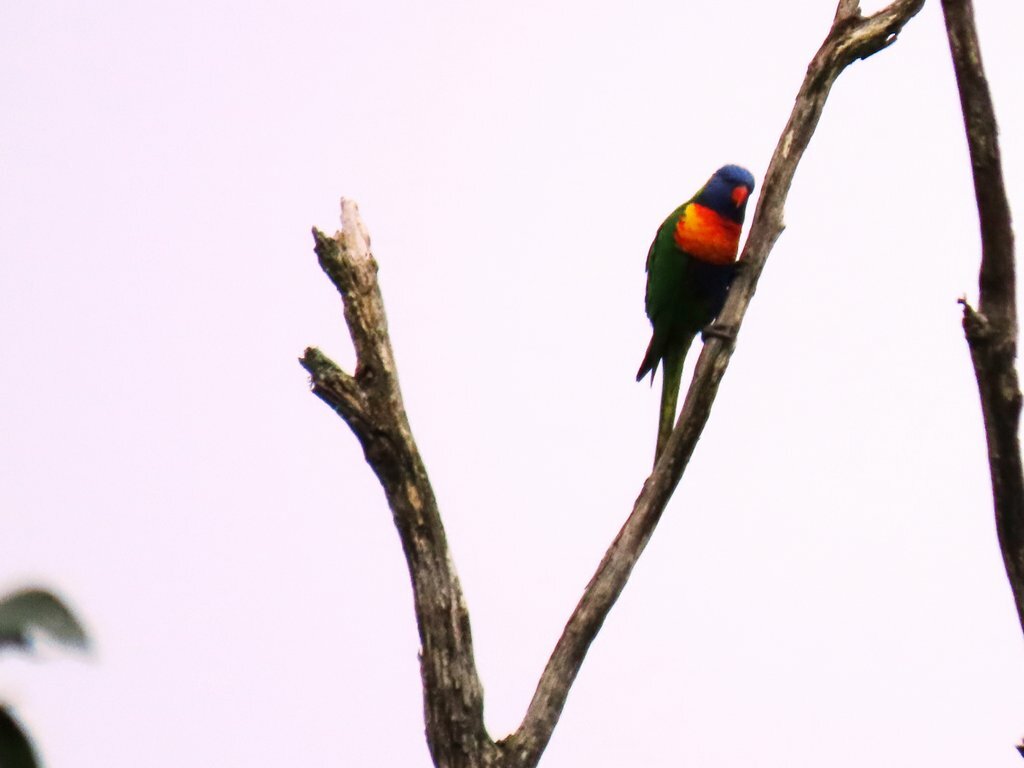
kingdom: Animalia
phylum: Chordata
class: Aves
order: Psittaciformes
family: Psittacidae
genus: Trichoglossus
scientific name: Trichoglossus haematodus
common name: Coconut lorikeet
